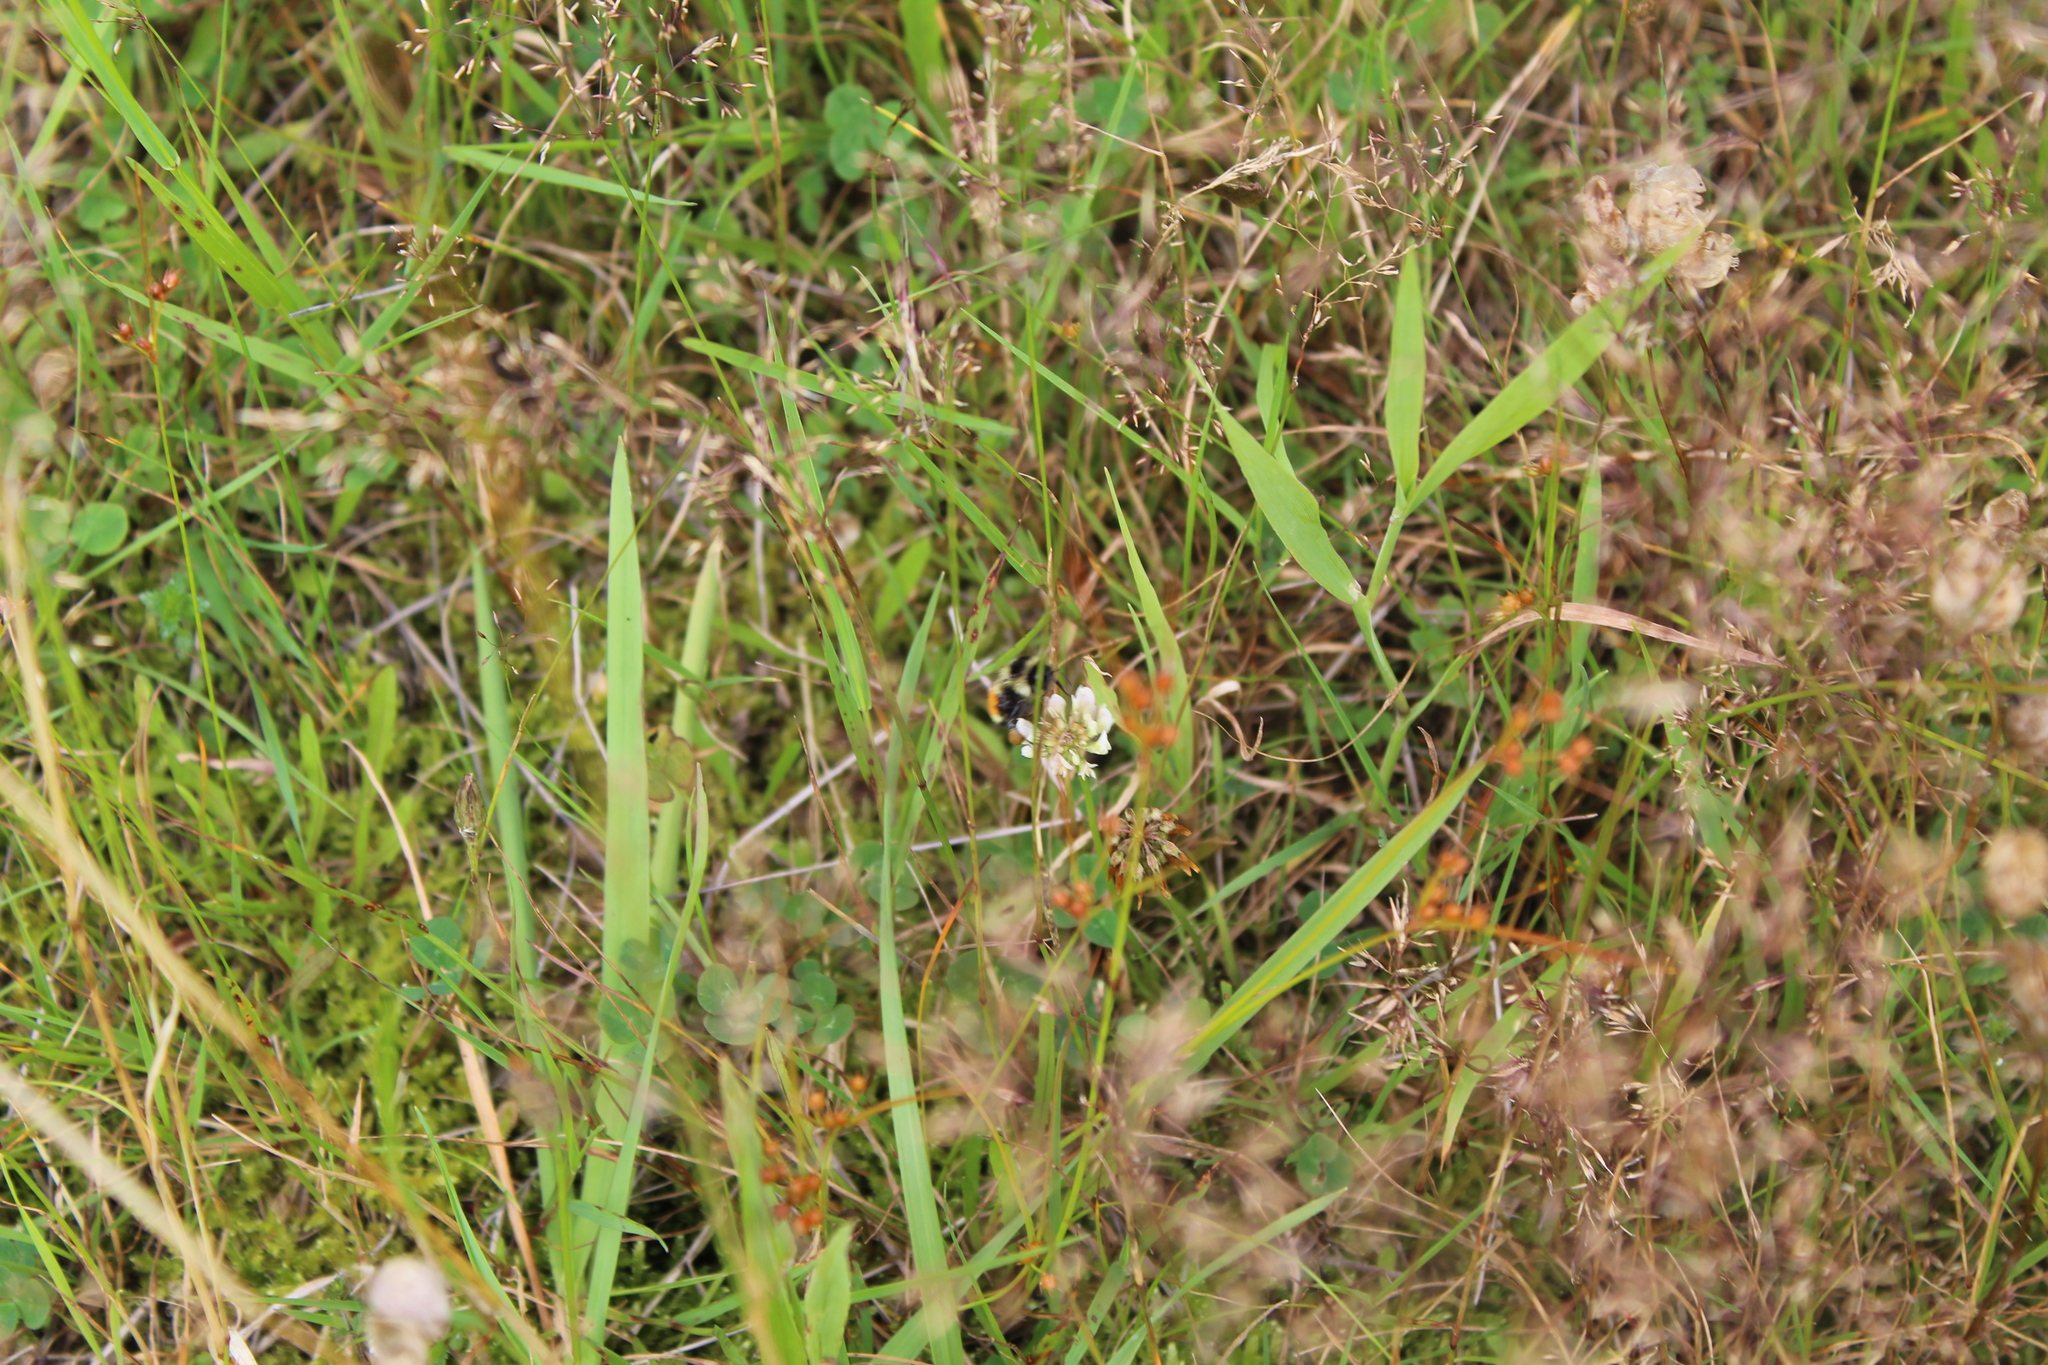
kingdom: Plantae
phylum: Tracheophyta
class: Magnoliopsida
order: Fabales
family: Fabaceae
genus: Trifolium
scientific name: Trifolium repens
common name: White clover
